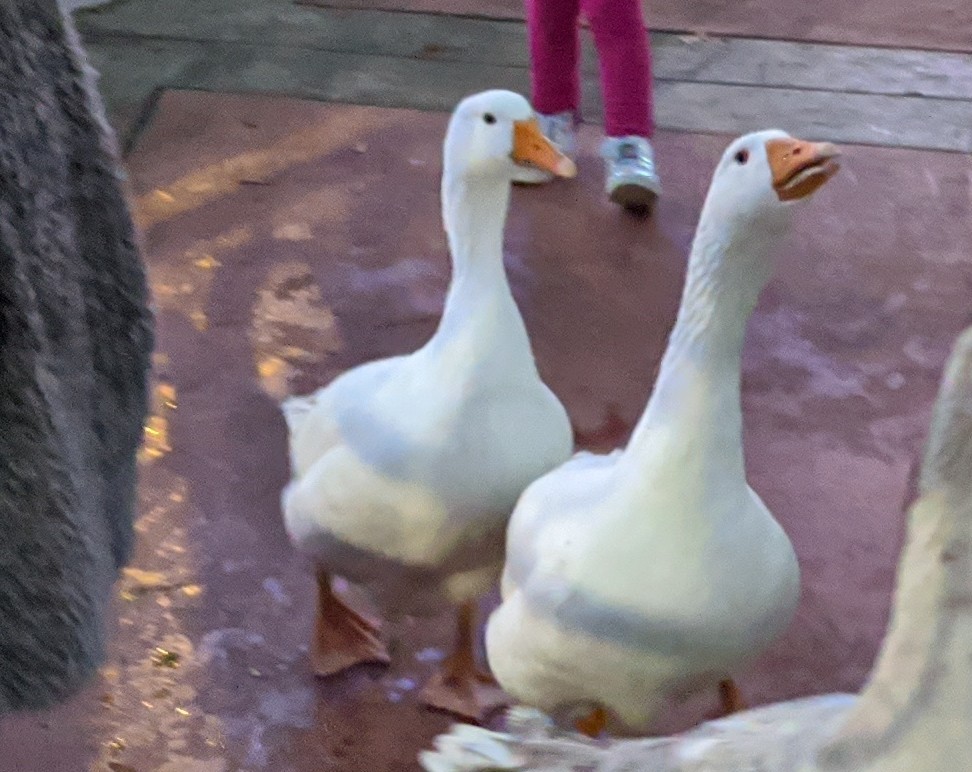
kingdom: Animalia
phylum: Chordata
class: Aves
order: Anseriformes
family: Anatidae
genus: Anser
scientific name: Anser anser
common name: Greylag goose
